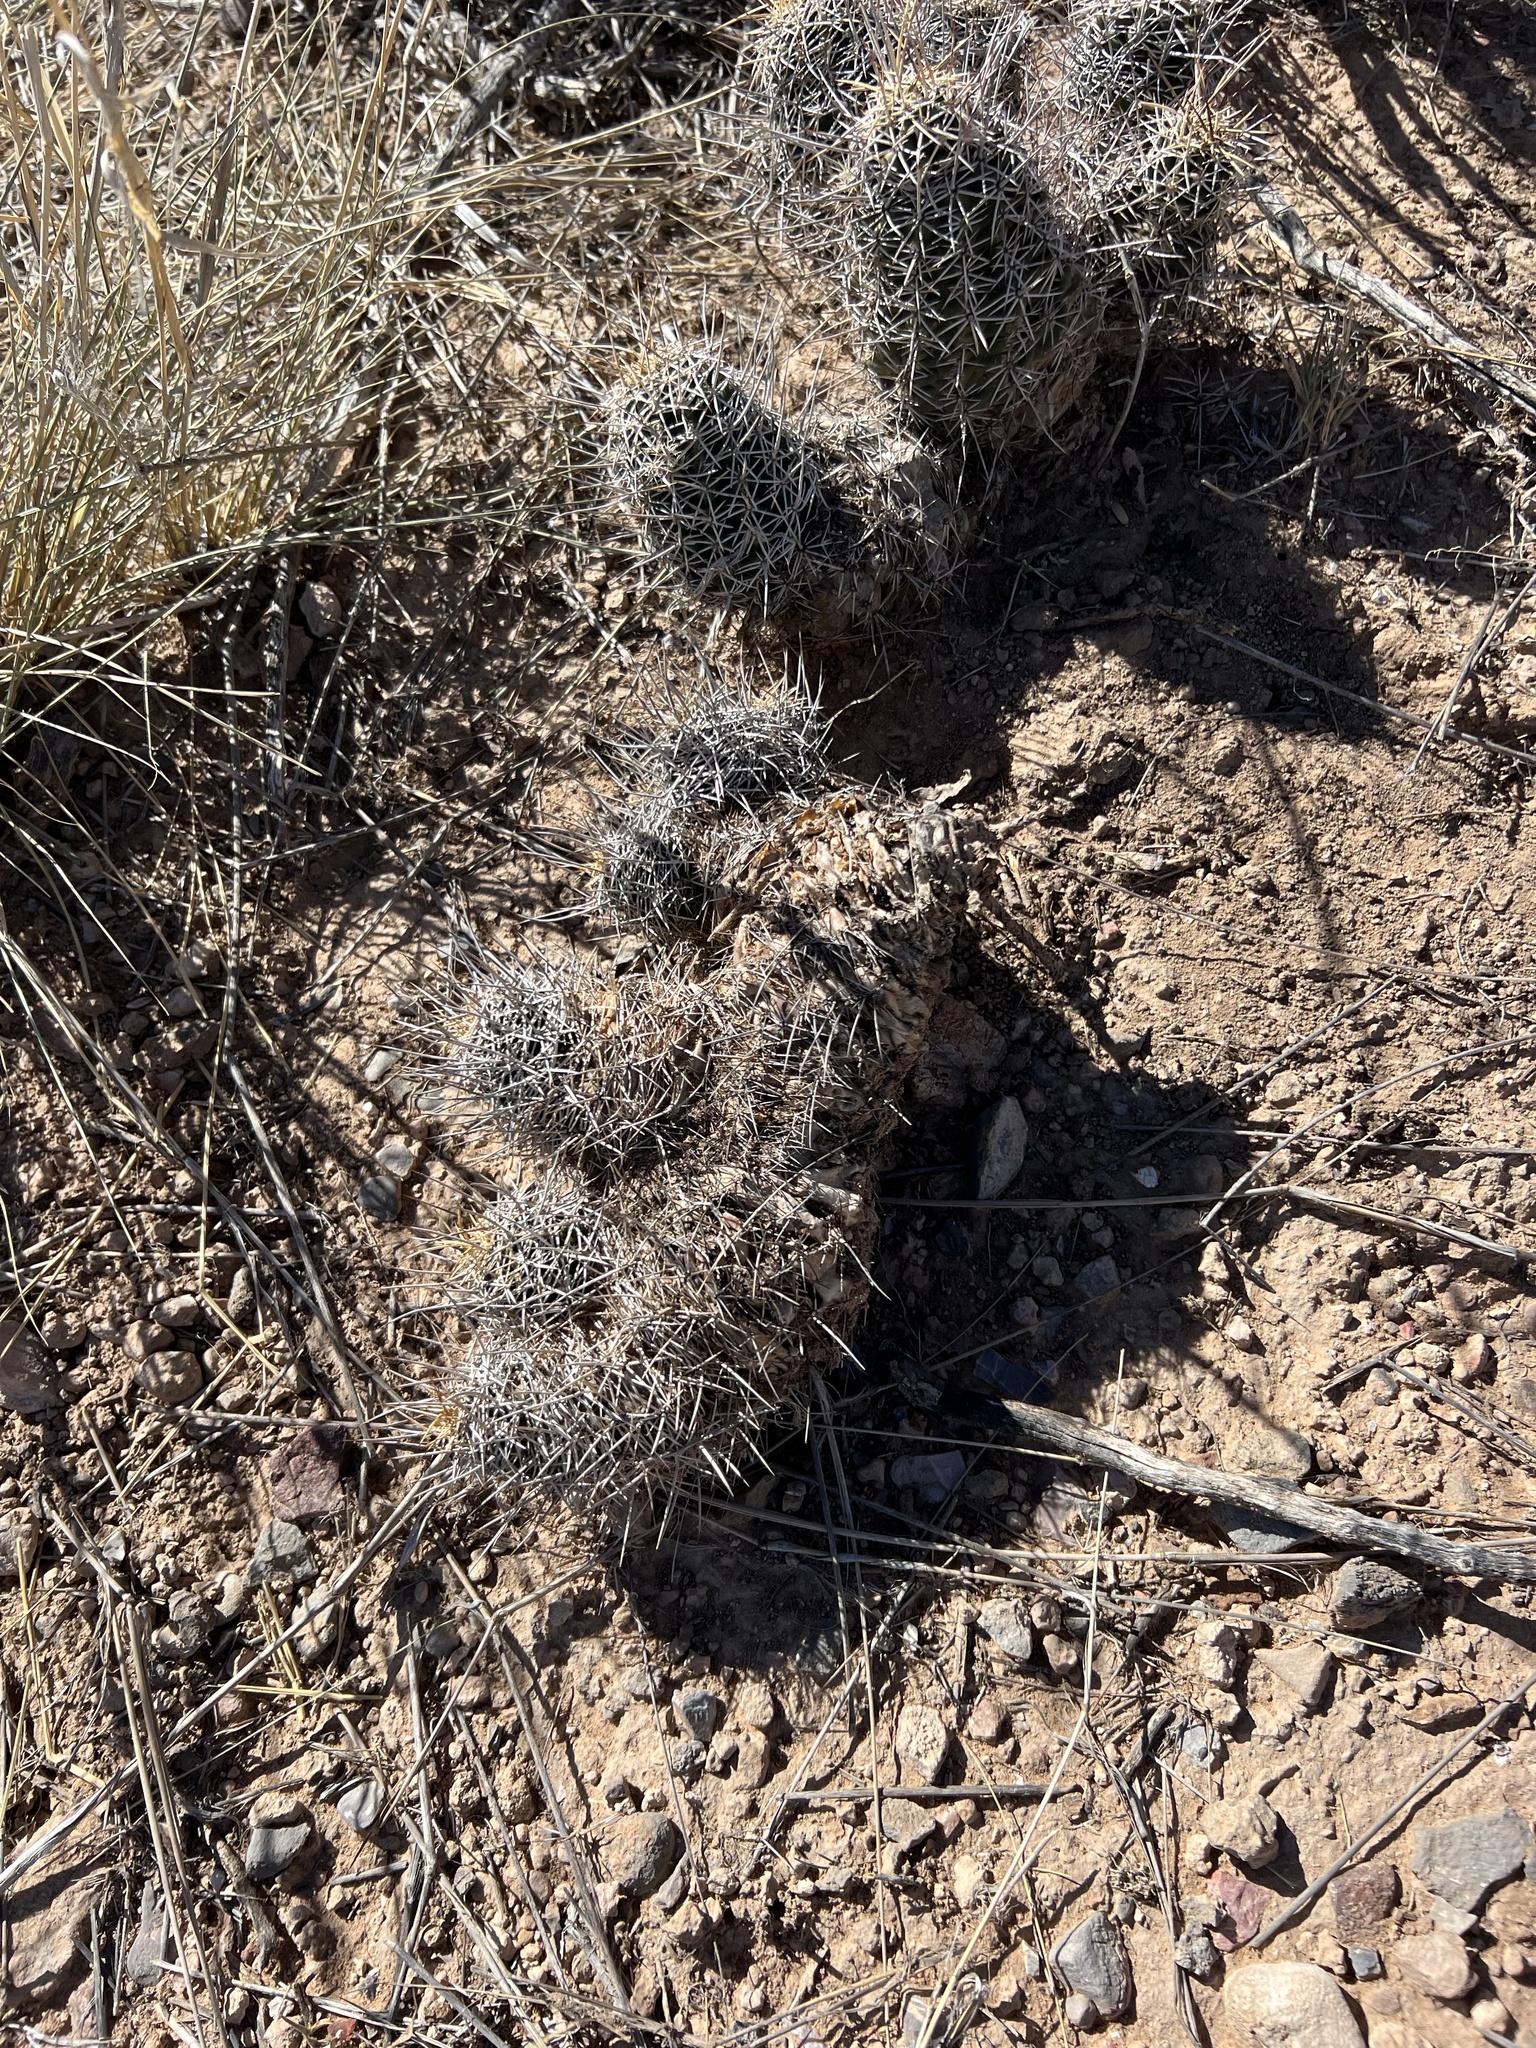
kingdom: Plantae
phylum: Tracheophyta
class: Magnoliopsida
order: Caryophyllales
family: Cactaceae
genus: Echinocereus
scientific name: Echinocereus fasciculatus
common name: Bundle hedgehog
